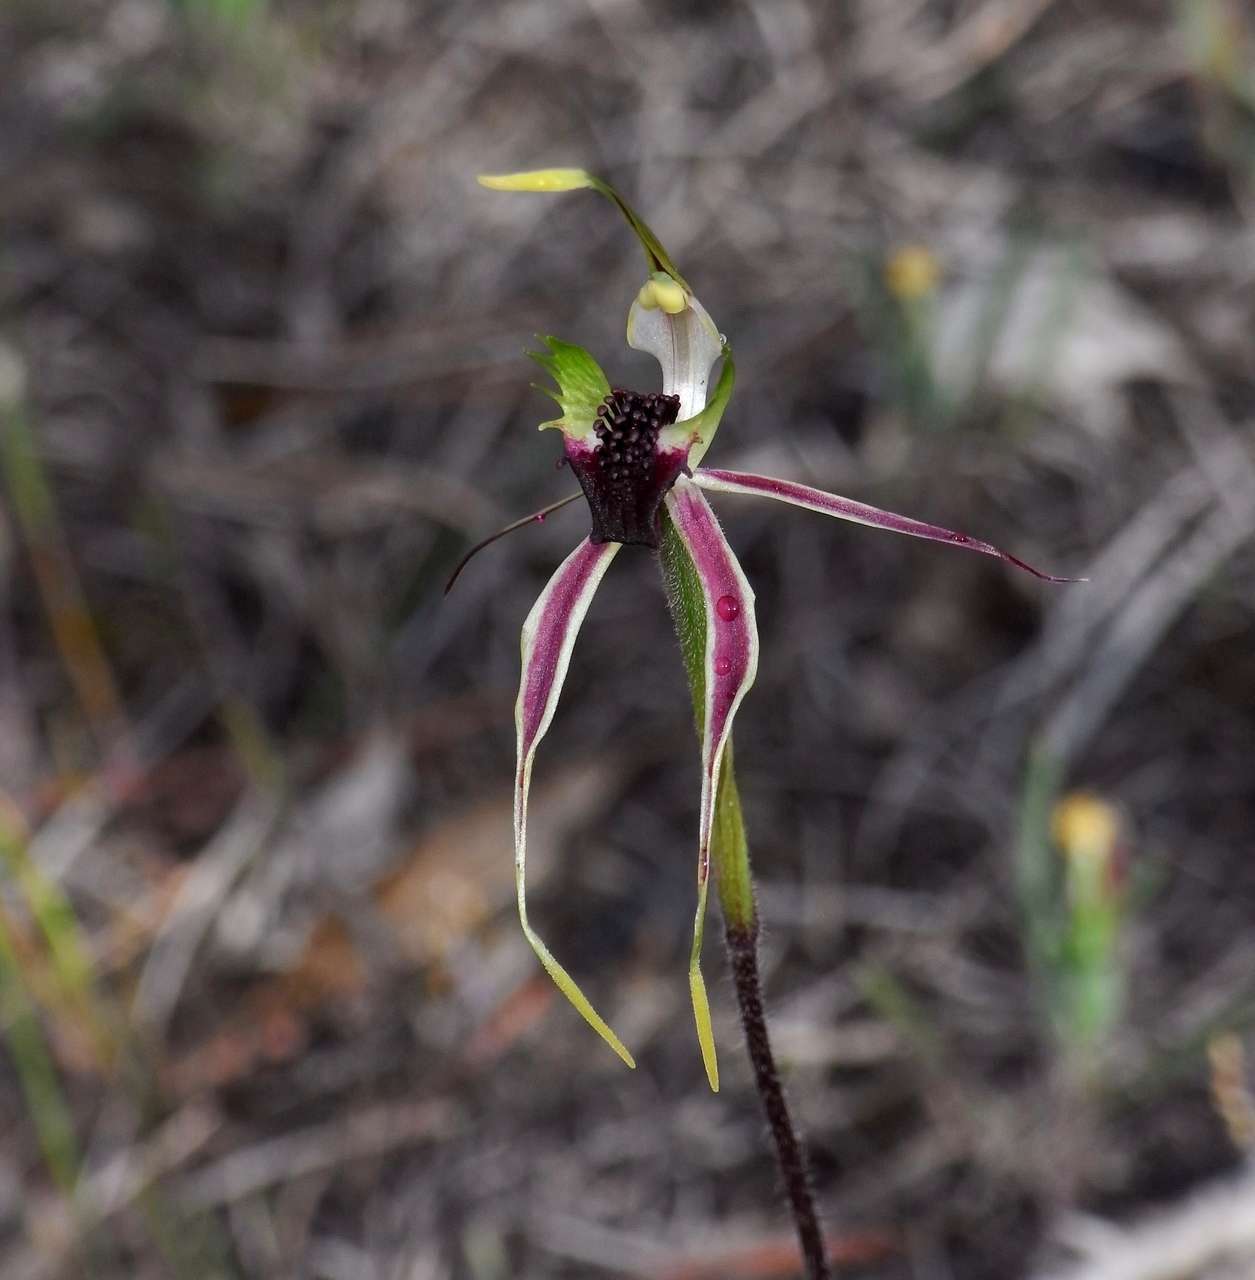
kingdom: Plantae
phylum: Tracheophyta
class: Liliopsida
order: Asparagales
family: Orchidaceae
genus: Caladenia
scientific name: Caladenia verrucosa
